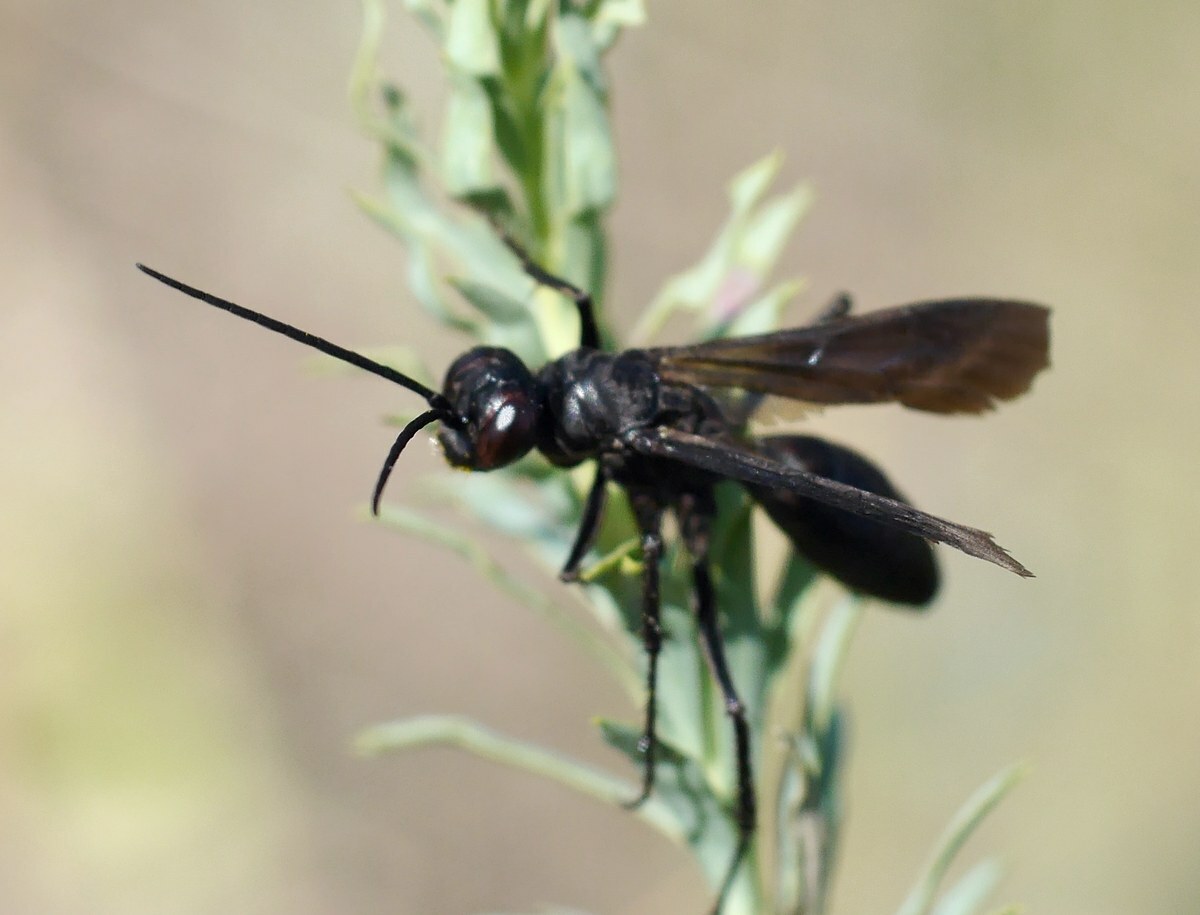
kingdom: Animalia
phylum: Arthropoda
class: Insecta
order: Hymenoptera
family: Pompilidae
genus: Agenioideus
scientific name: Agenioideus excisus
